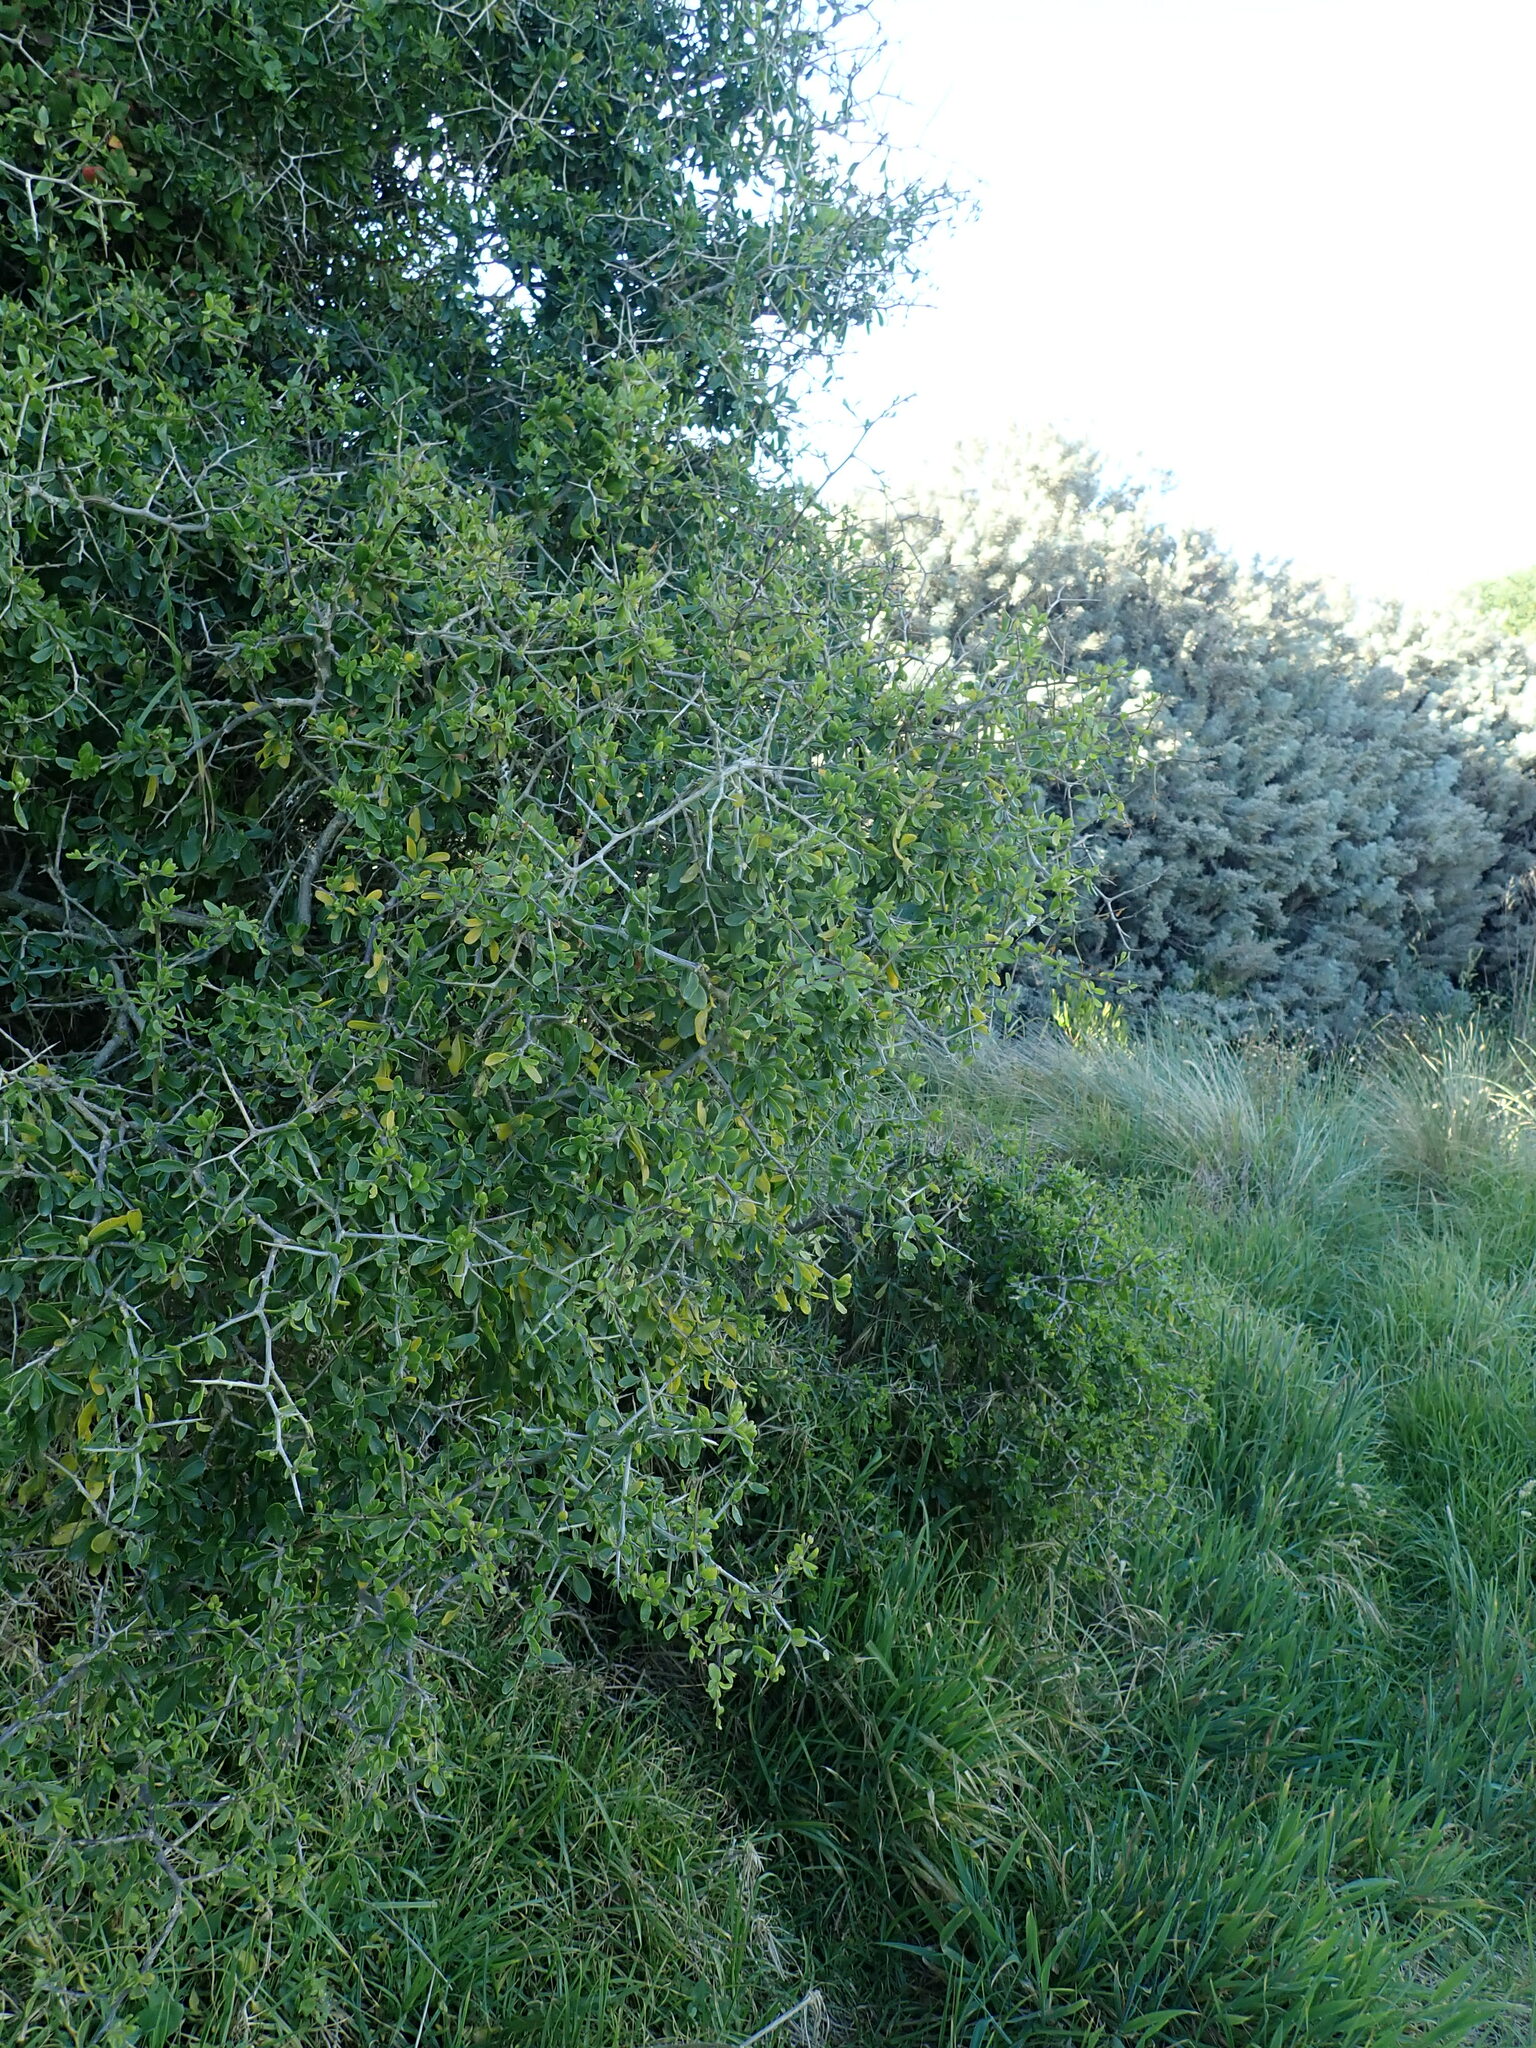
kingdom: Plantae
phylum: Tracheophyta
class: Magnoliopsida
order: Solanales
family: Solanaceae
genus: Lycium
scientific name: Lycium ferocissimum
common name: African boxthorn
